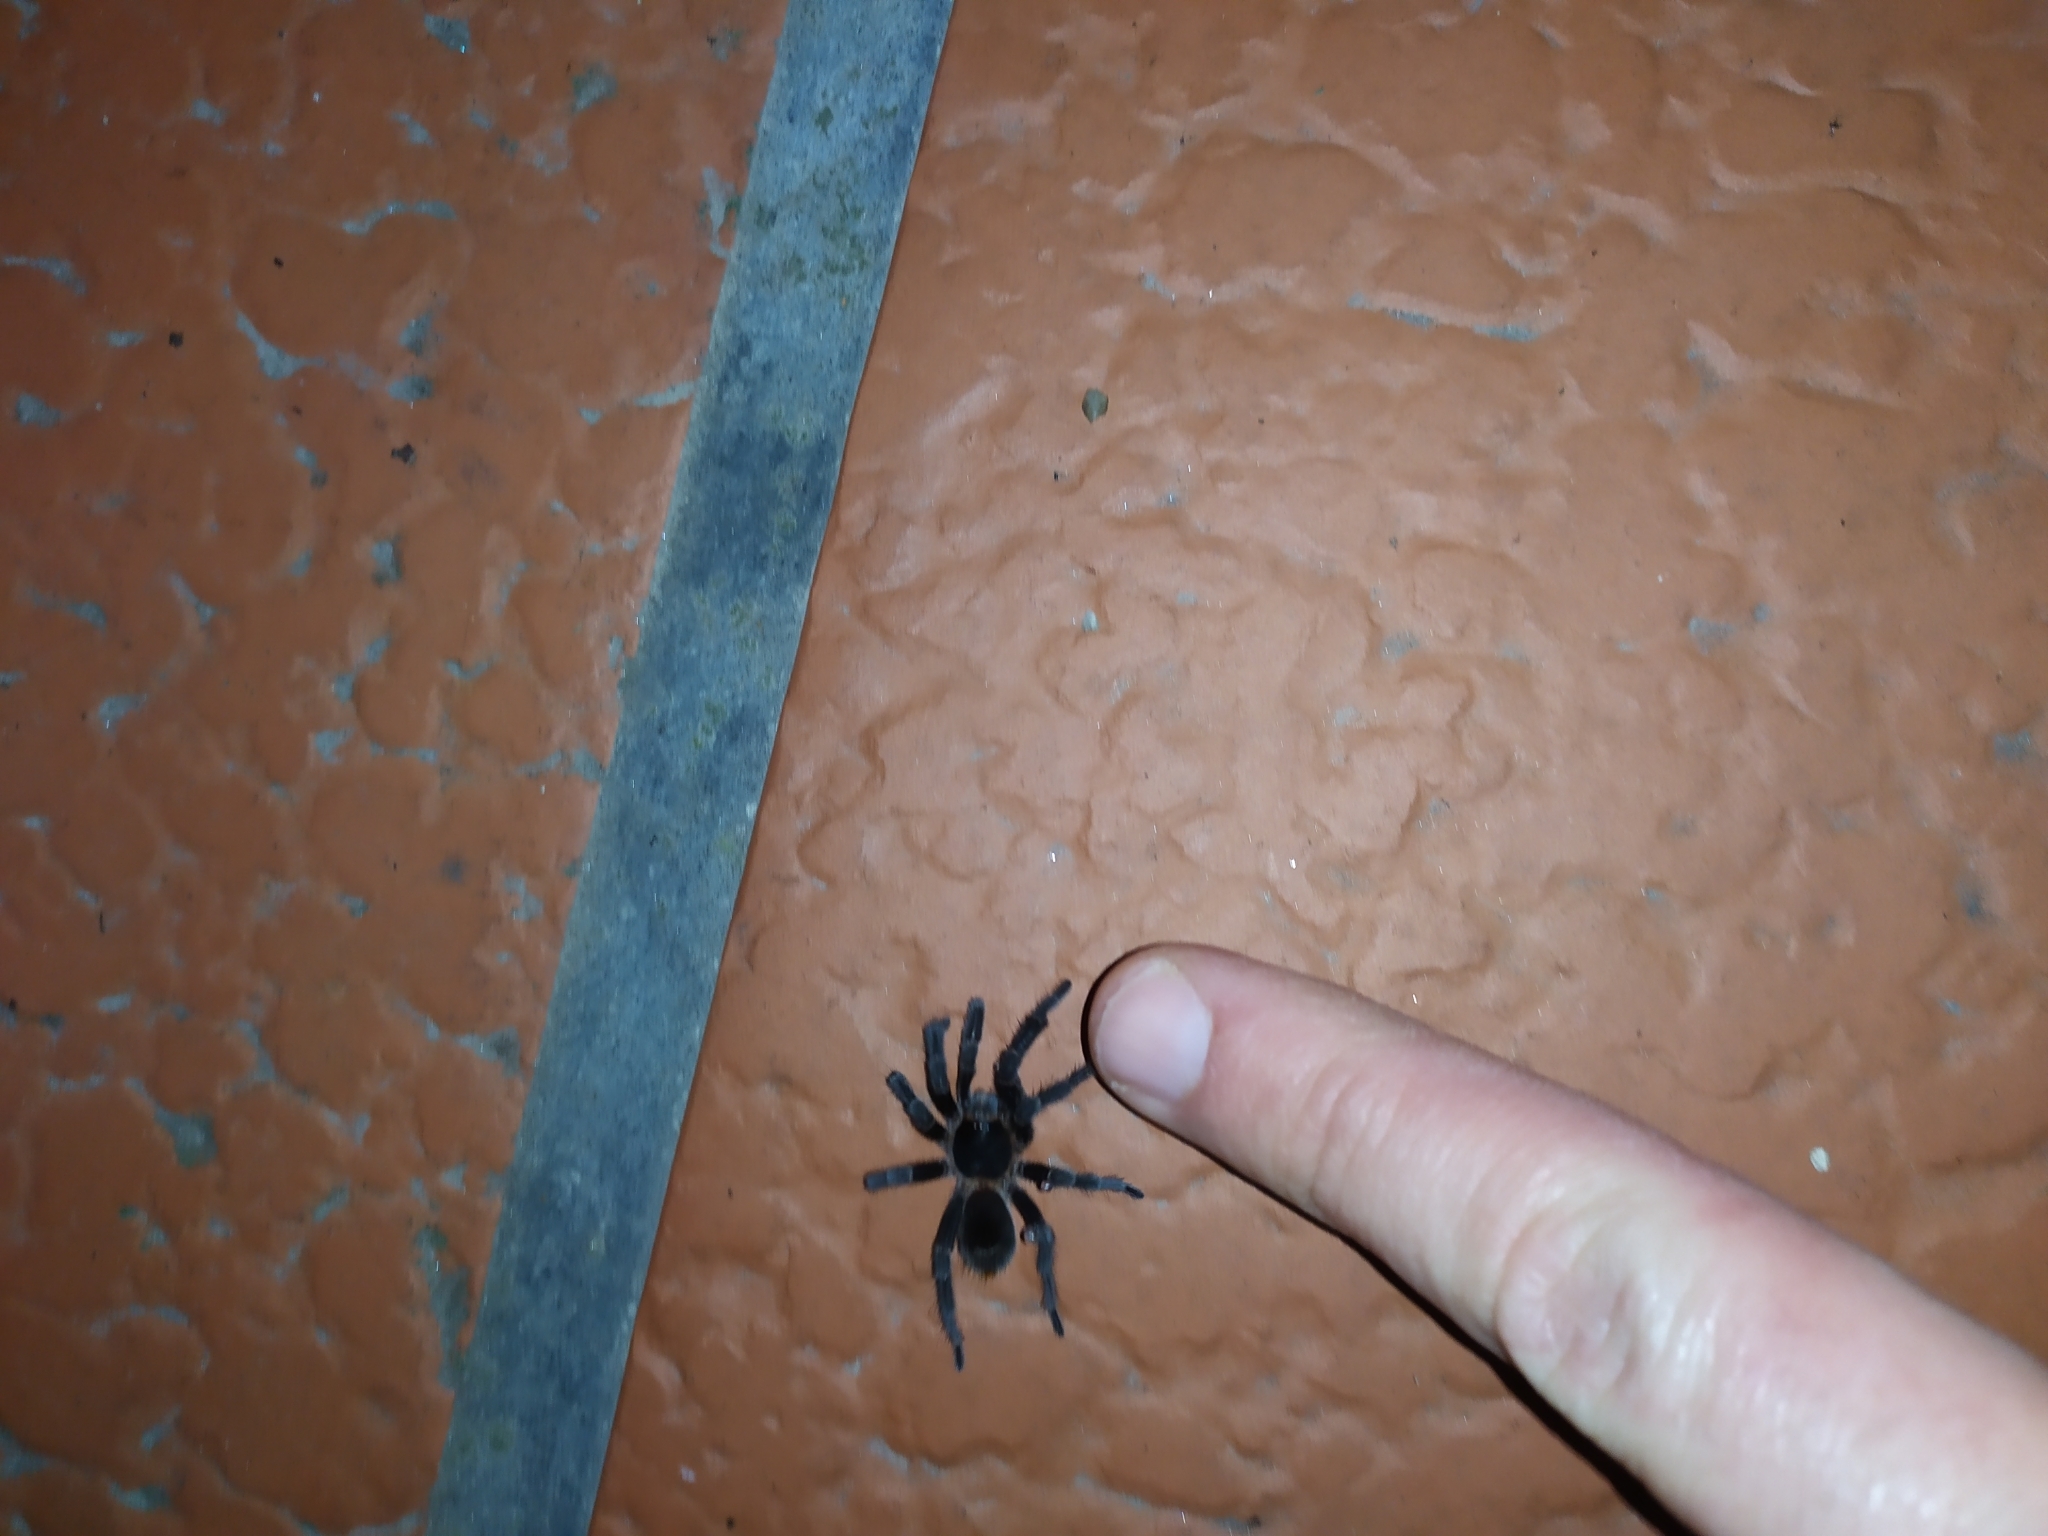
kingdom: Animalia
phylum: Arthropoda
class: Arachnida
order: Araneae
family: Theraphosidae
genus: Homoeomma
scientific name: Homoeomma uruguayense
